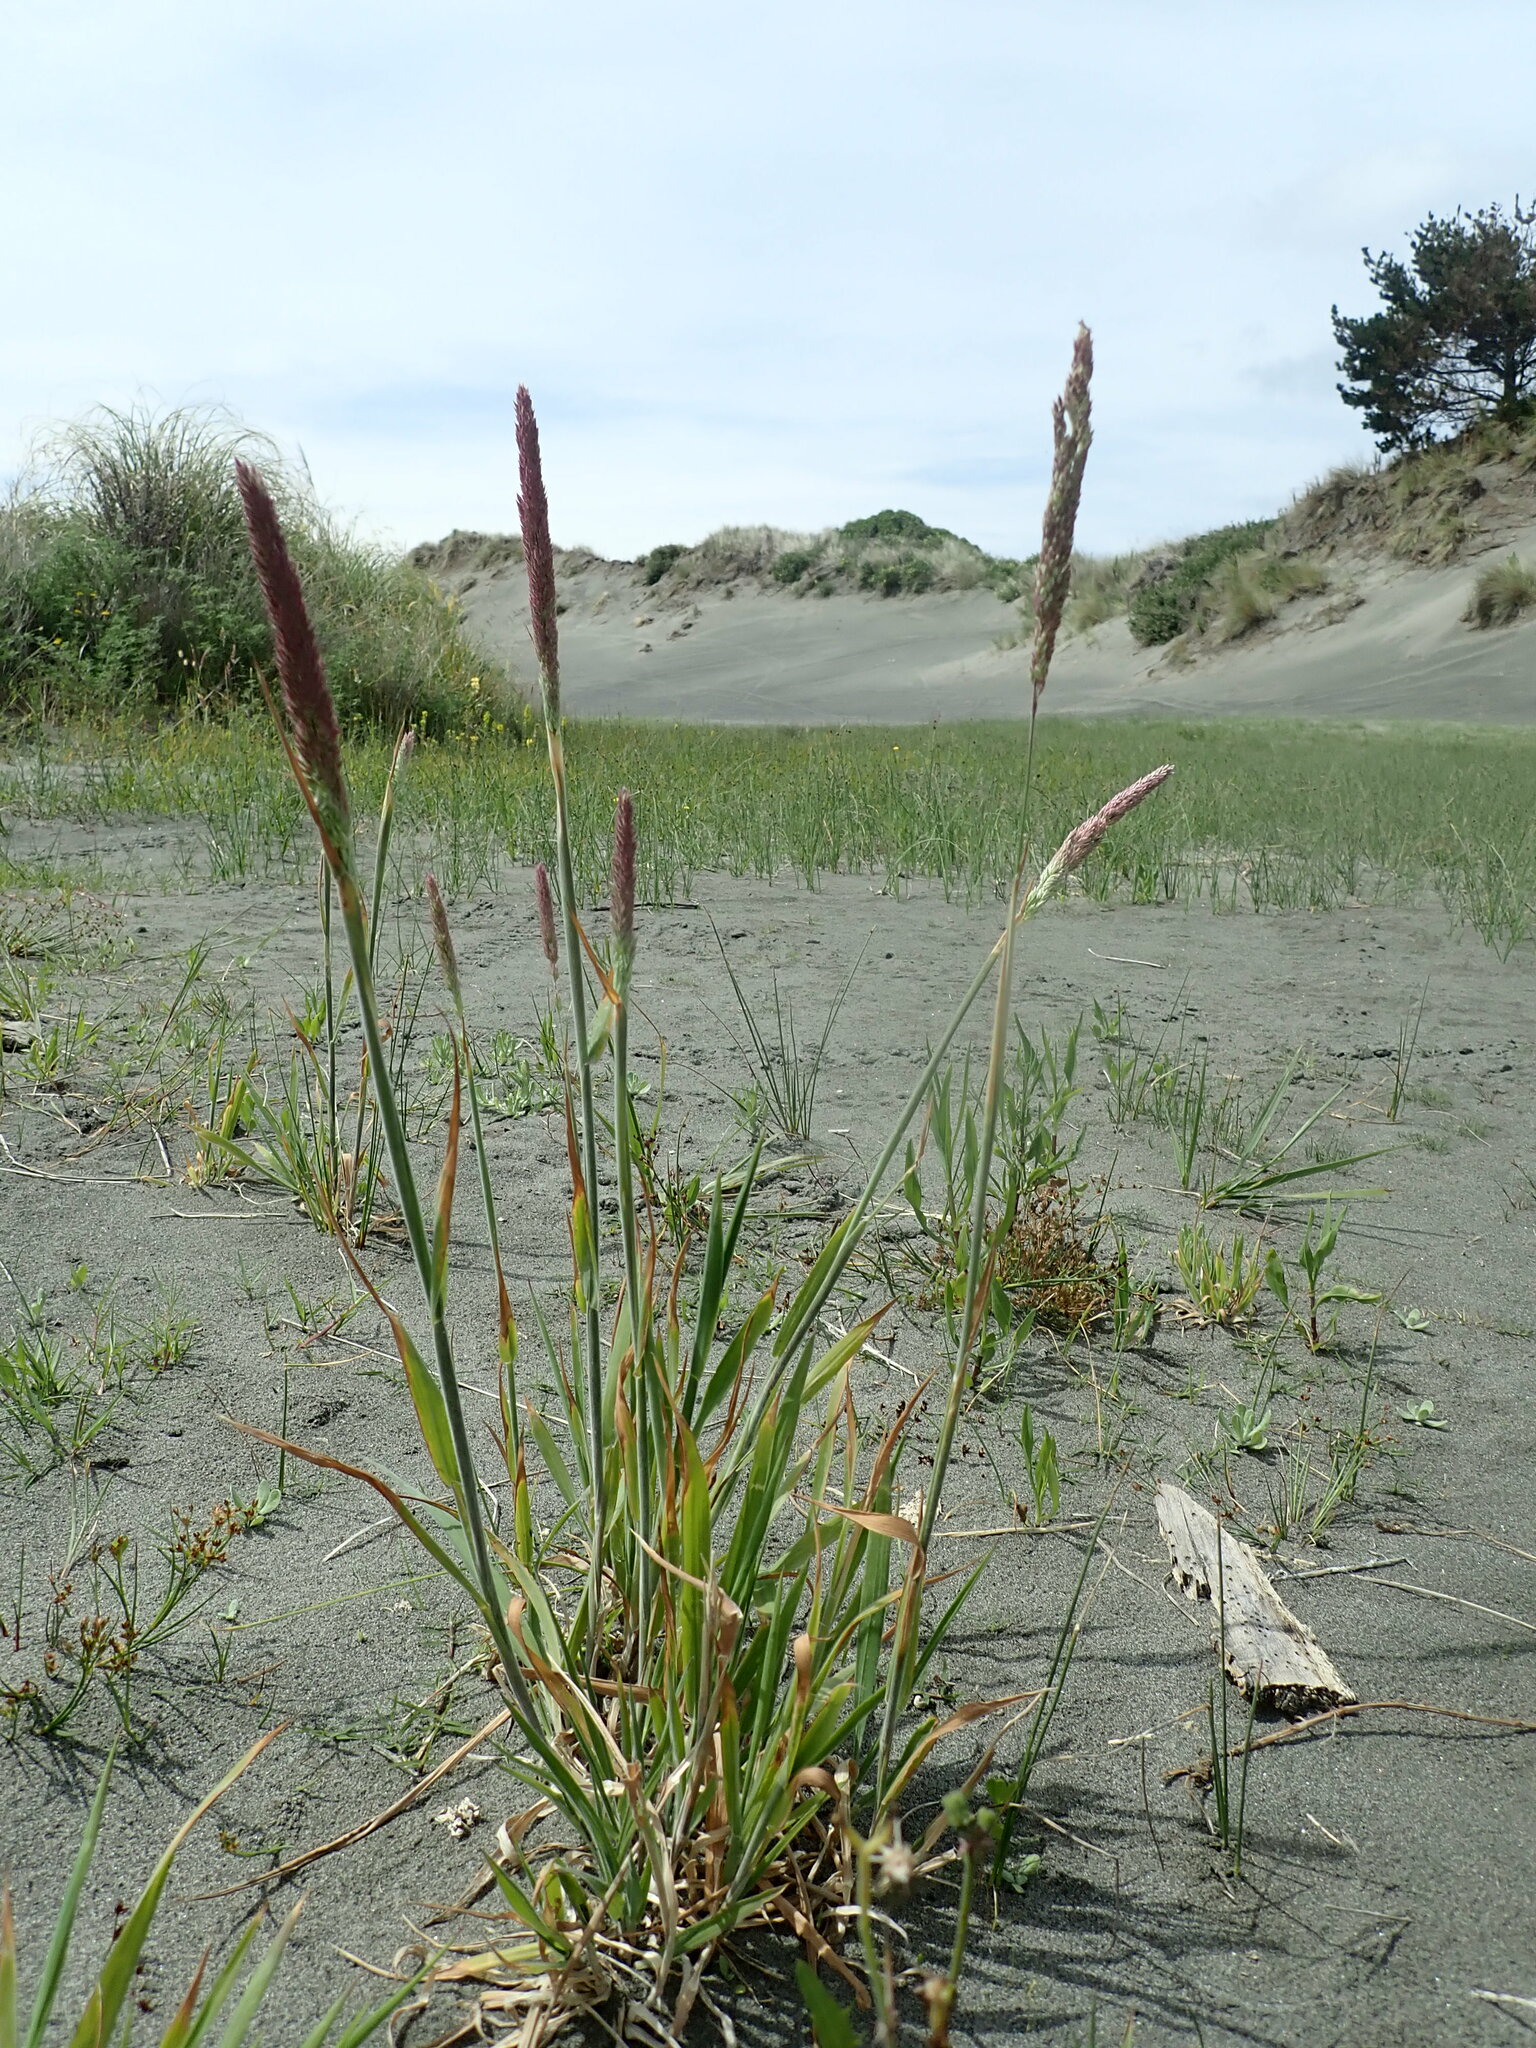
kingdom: Plantae
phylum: Tracheophyta
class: Liliopsida
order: Poales
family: Poaceae
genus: Holcus
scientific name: Holcus lanatus
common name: Yorkshire-fog
